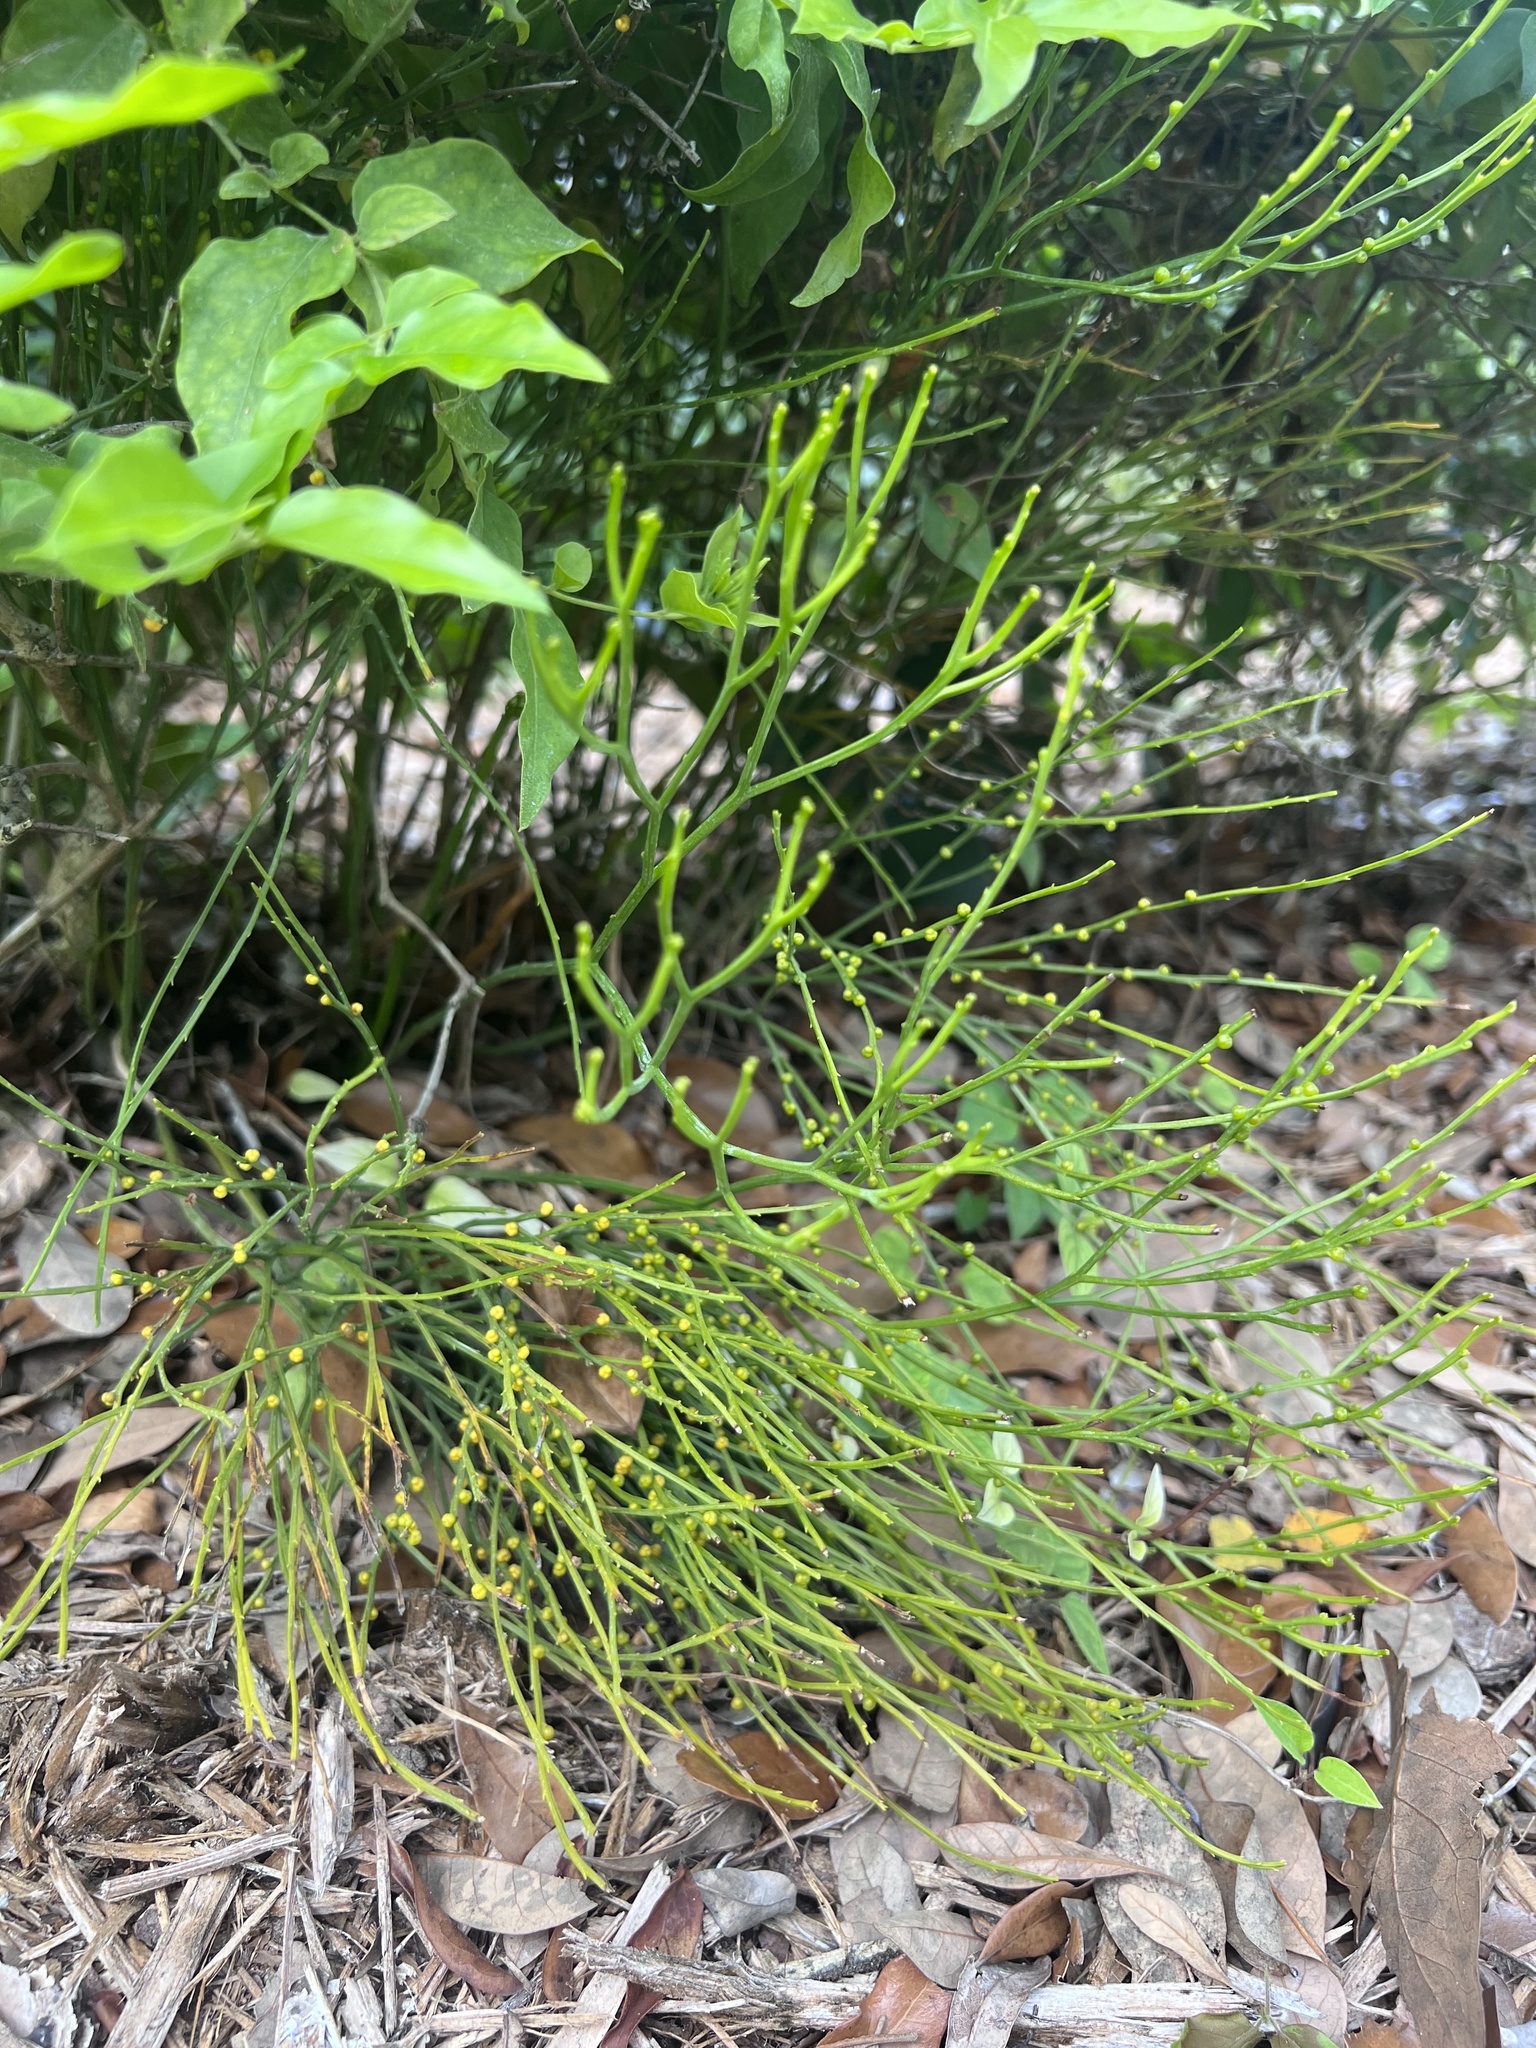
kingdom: Plantae
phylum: Tracheophyta
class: Polypodiopsida
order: Psilotales
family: Psilotaceae
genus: Psilotum
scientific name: Psilotum nudum
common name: Skeleton fork fern
